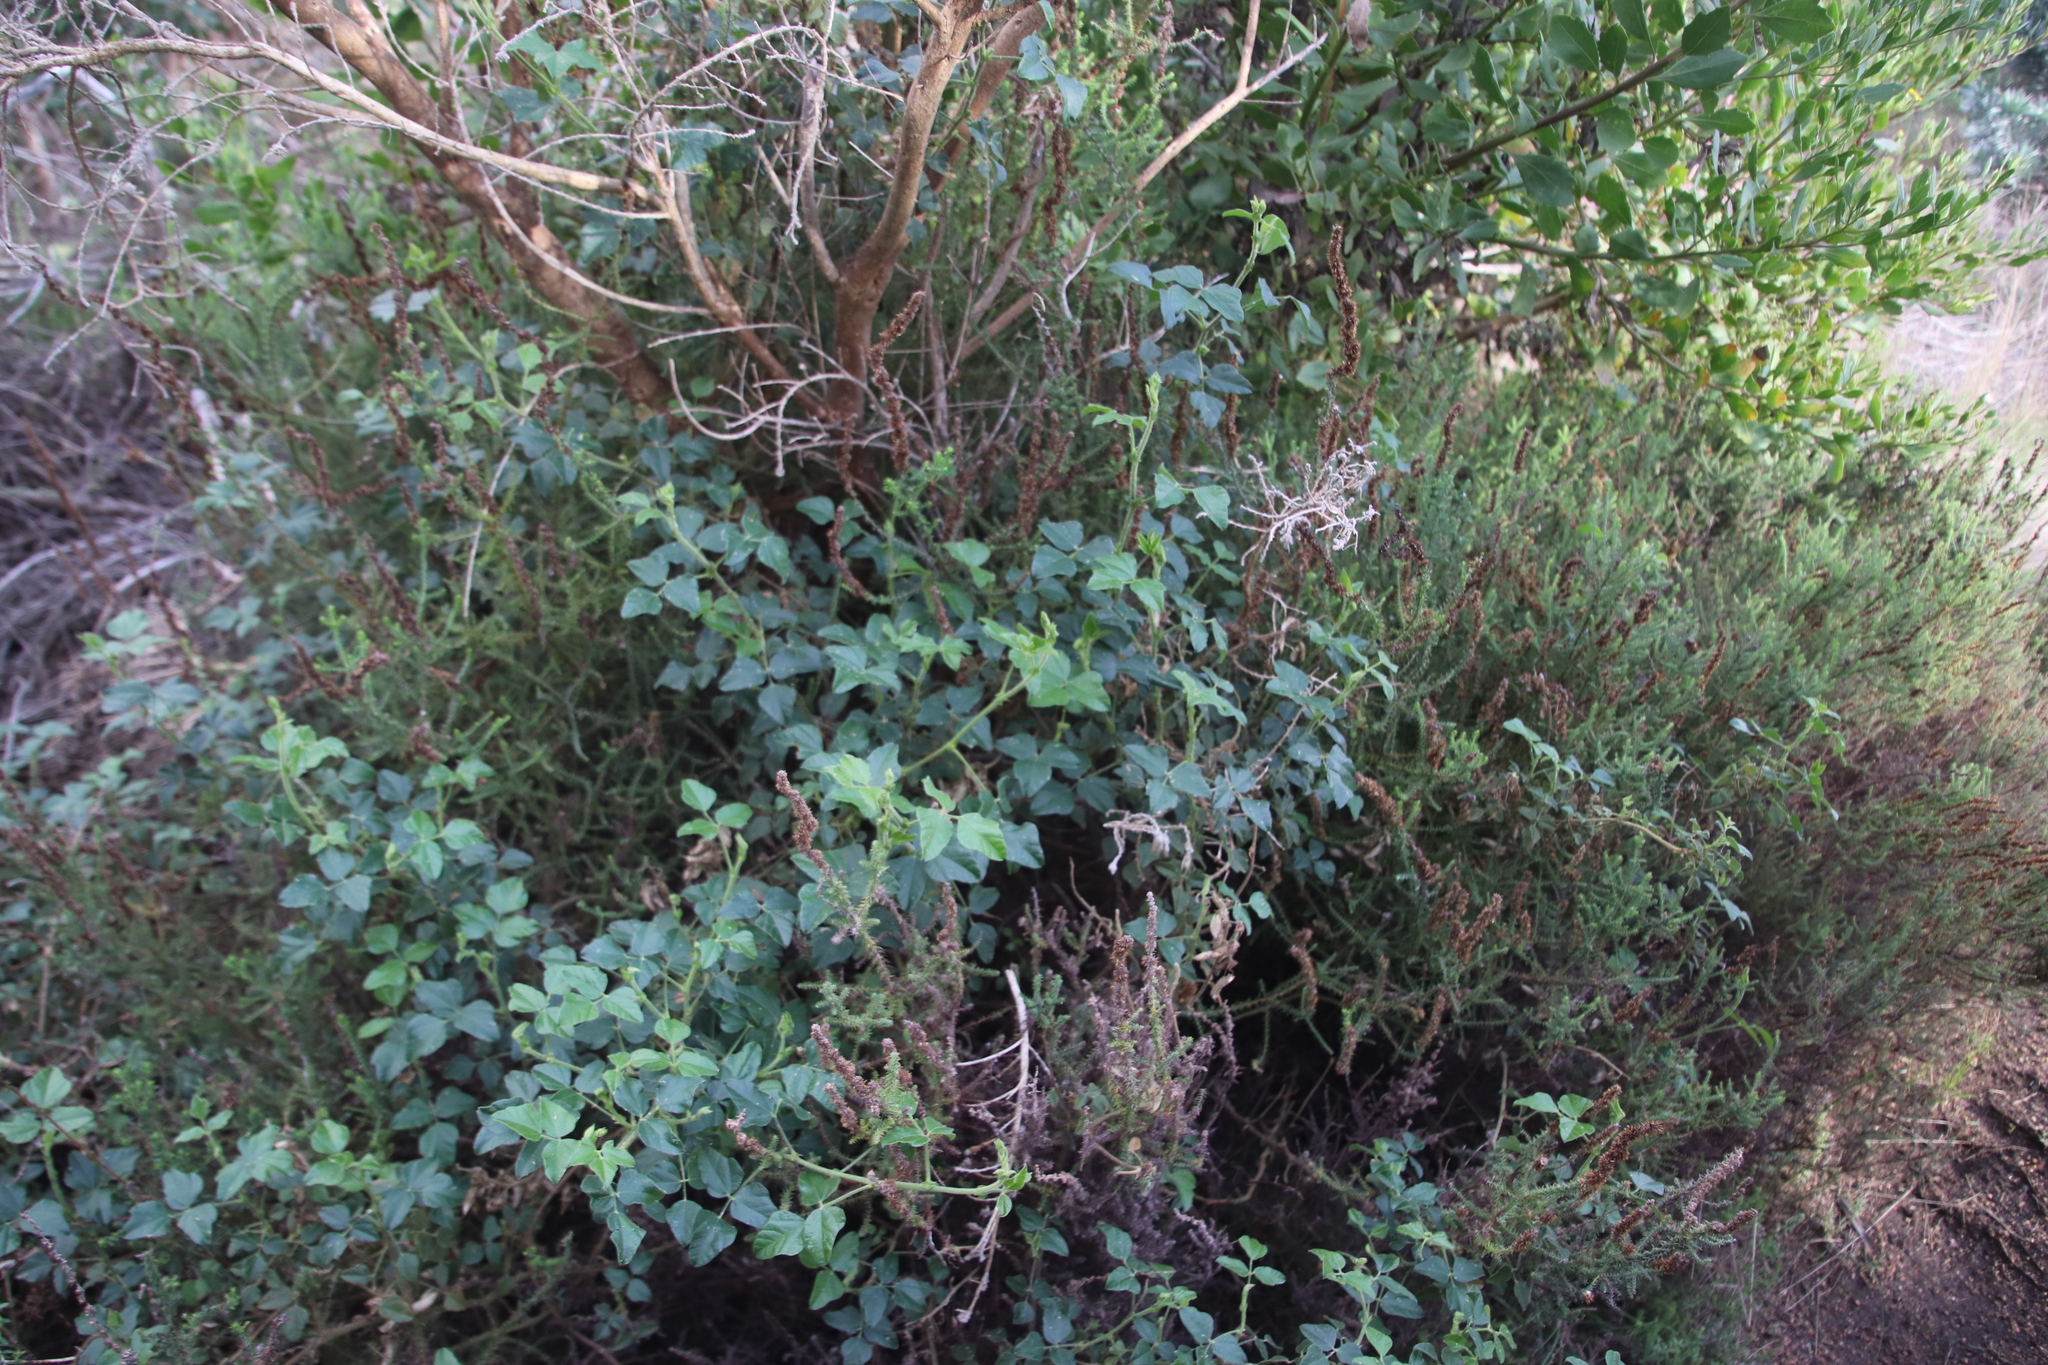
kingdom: Plantae
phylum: Tracheophyta
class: Magnoliopsida
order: Fabales
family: Fabaceae
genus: Bolusafra
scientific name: Bolusafra bituminosa
